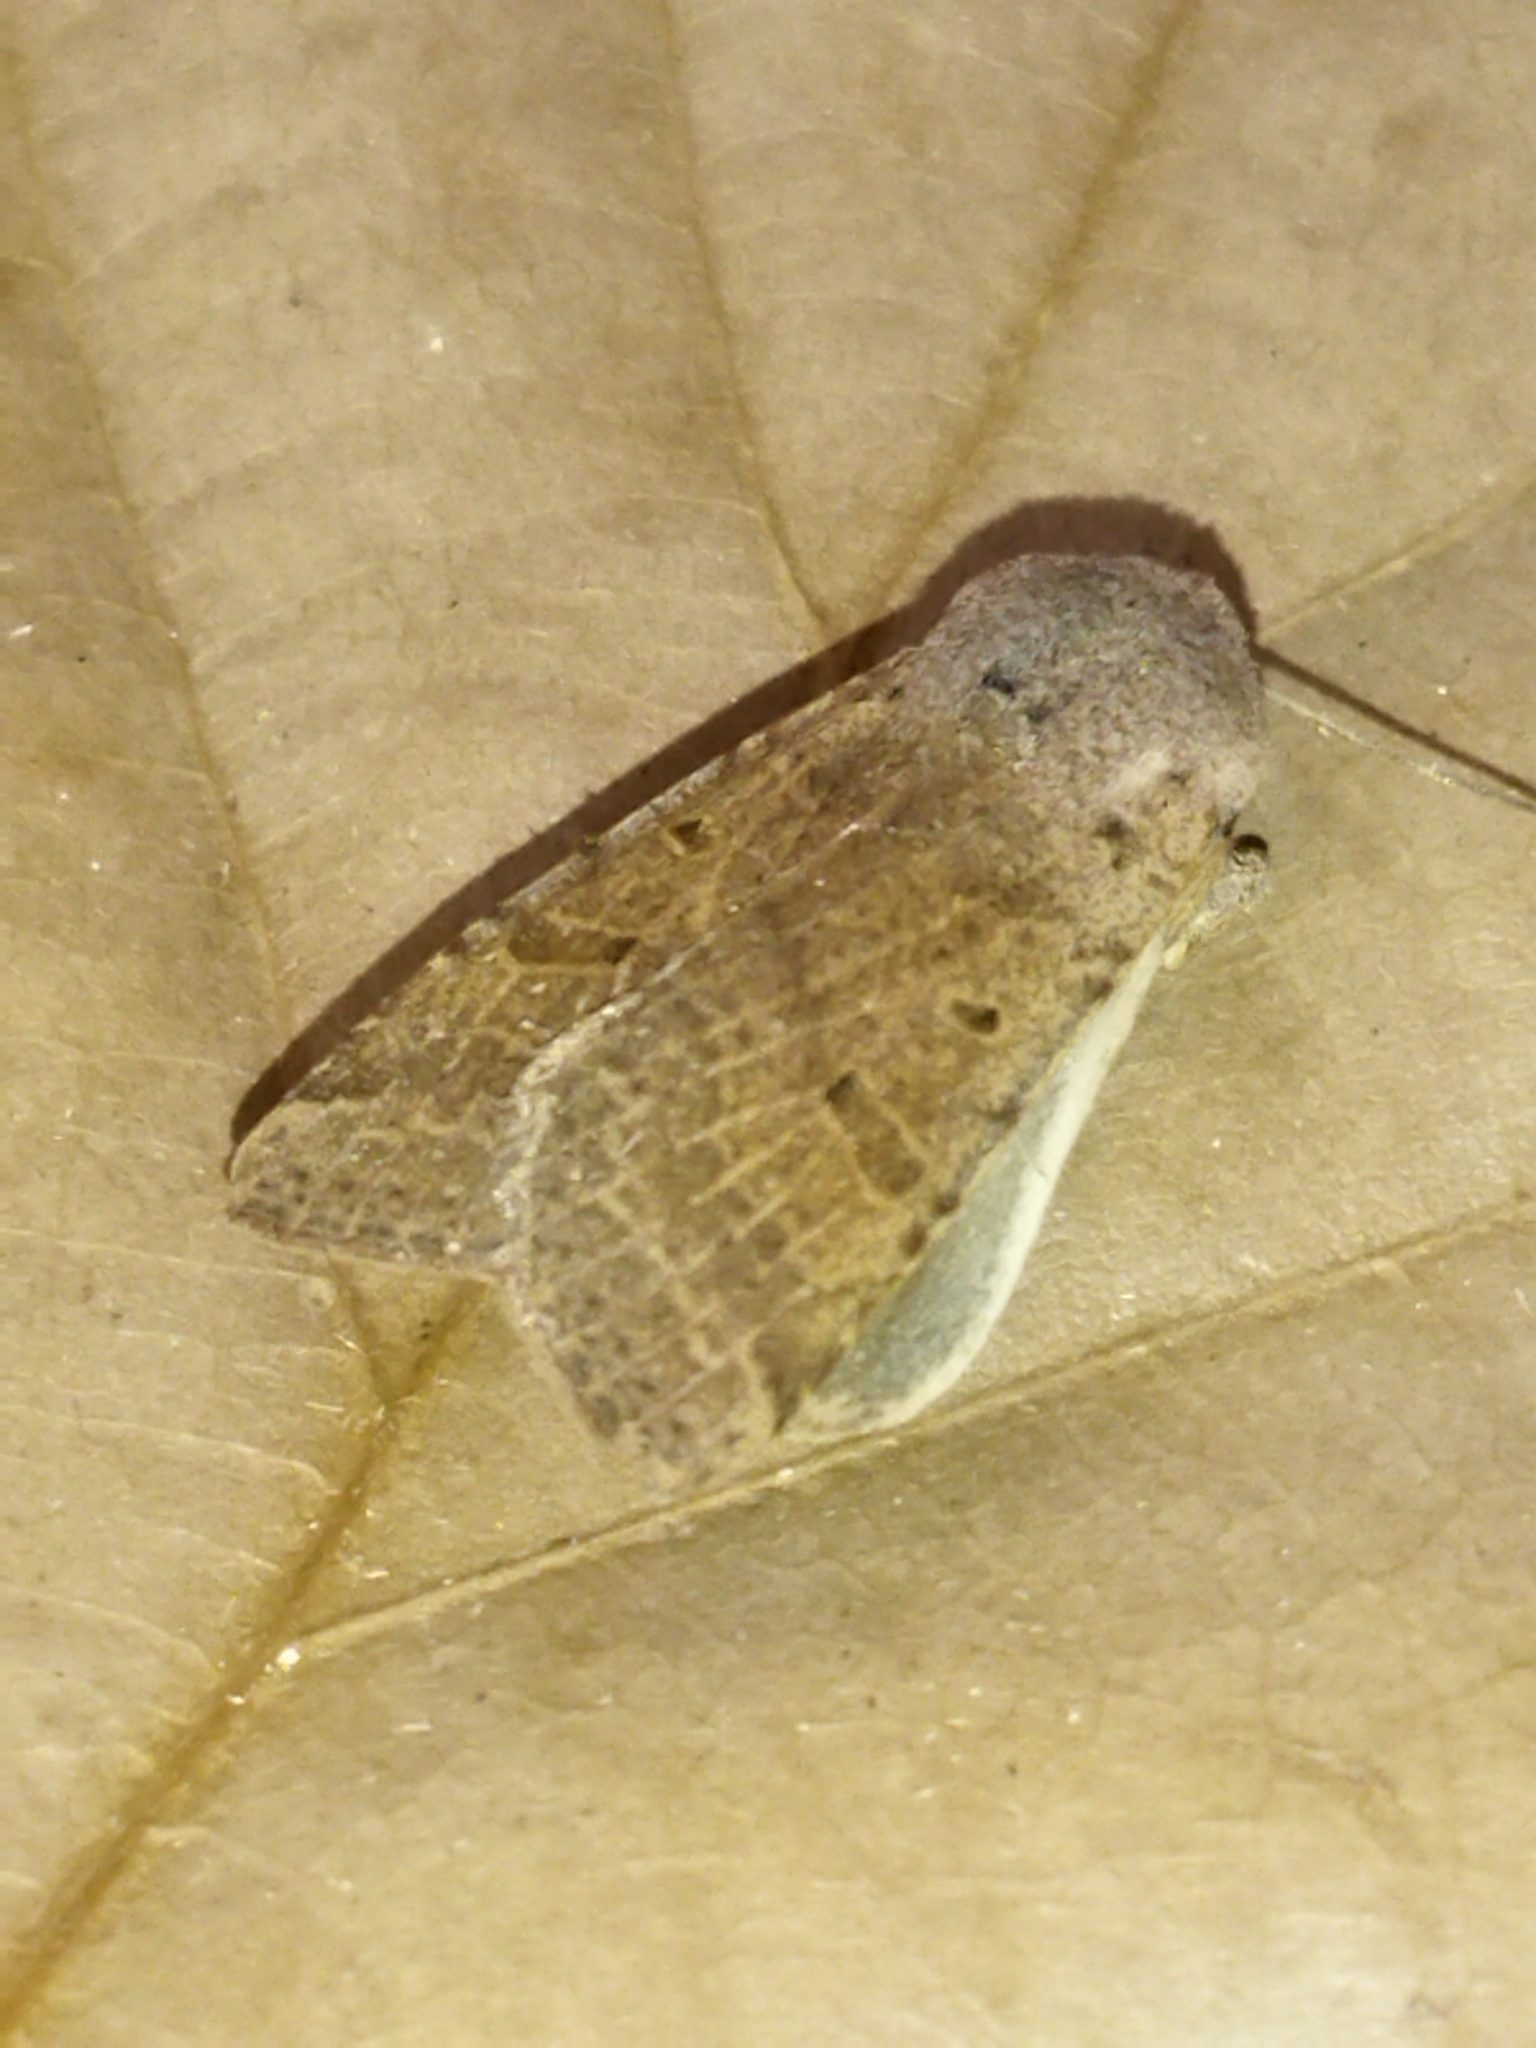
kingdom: Animalia
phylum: Arthropoda
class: Insecta
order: Lepidoptera
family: Noctuidae
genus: Agrochola
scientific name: Agrochola lychnidis
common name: Beaded chestnut
